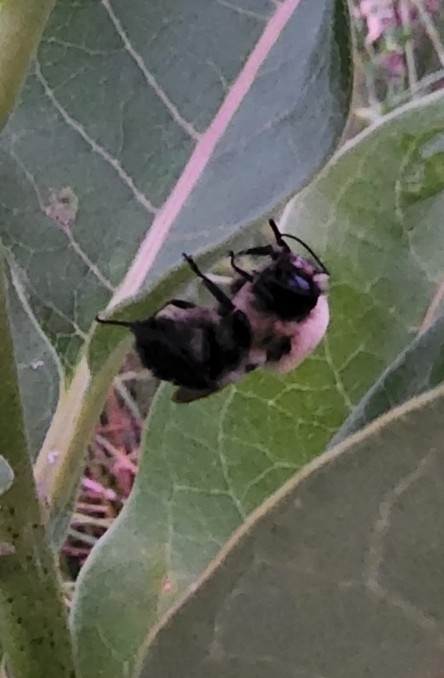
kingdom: Animalia
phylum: Arthropoda
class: Insecta
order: Hymenoptera
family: Apidae
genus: Bombus
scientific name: Bombus griseocollis
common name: Brown-belted bumble bee
